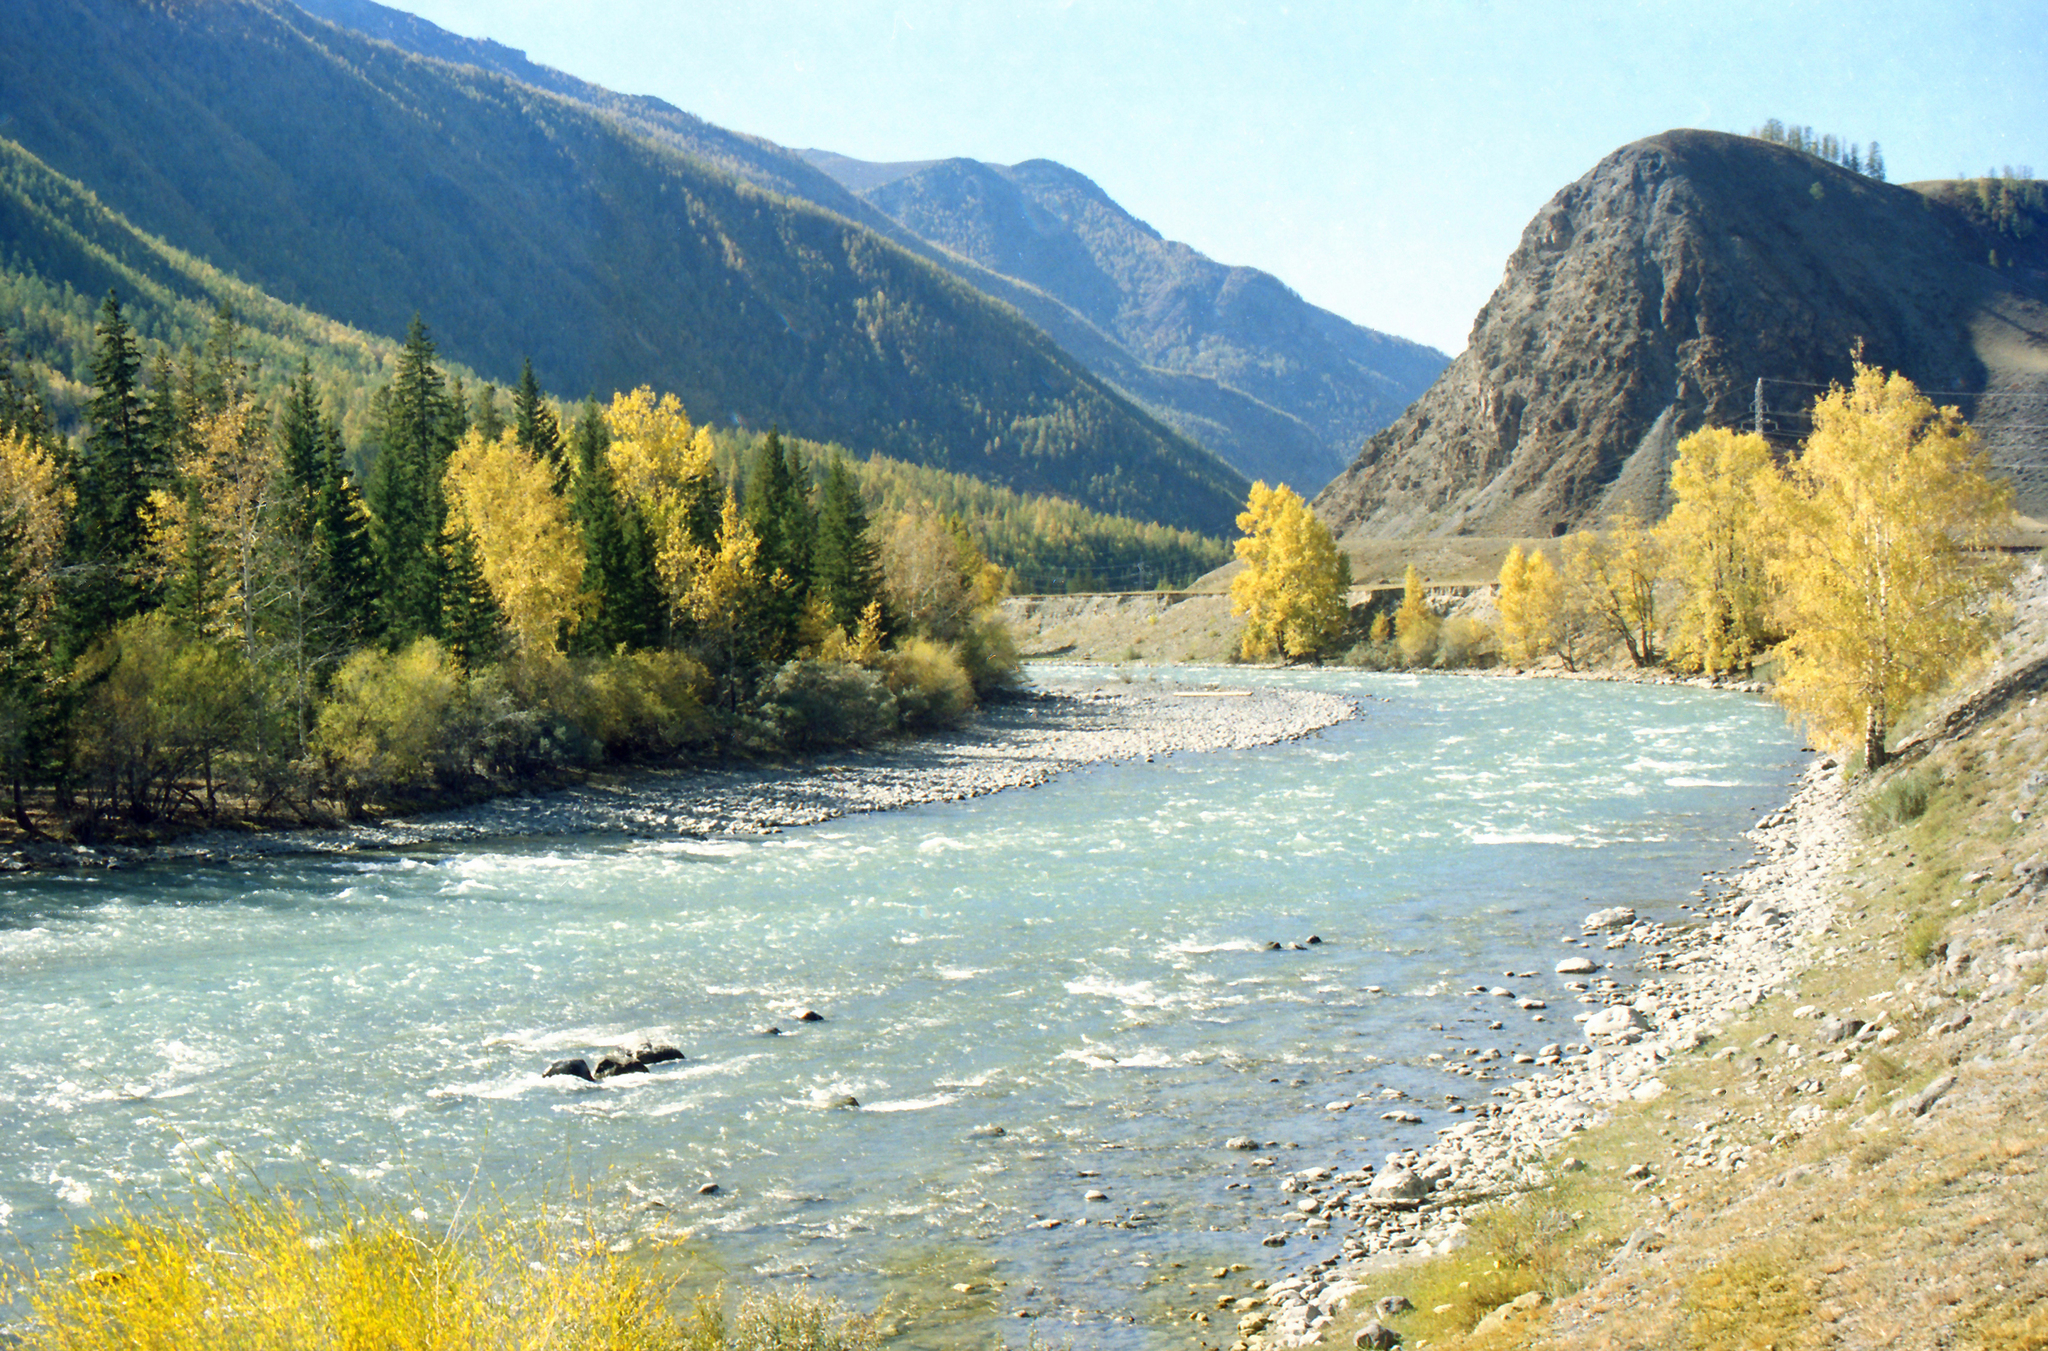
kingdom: Plantae
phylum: Tracheophyta
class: Pinopsida
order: Pinales
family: Pinaceae
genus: Picea
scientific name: Picea obovata
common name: Siberian spruce
